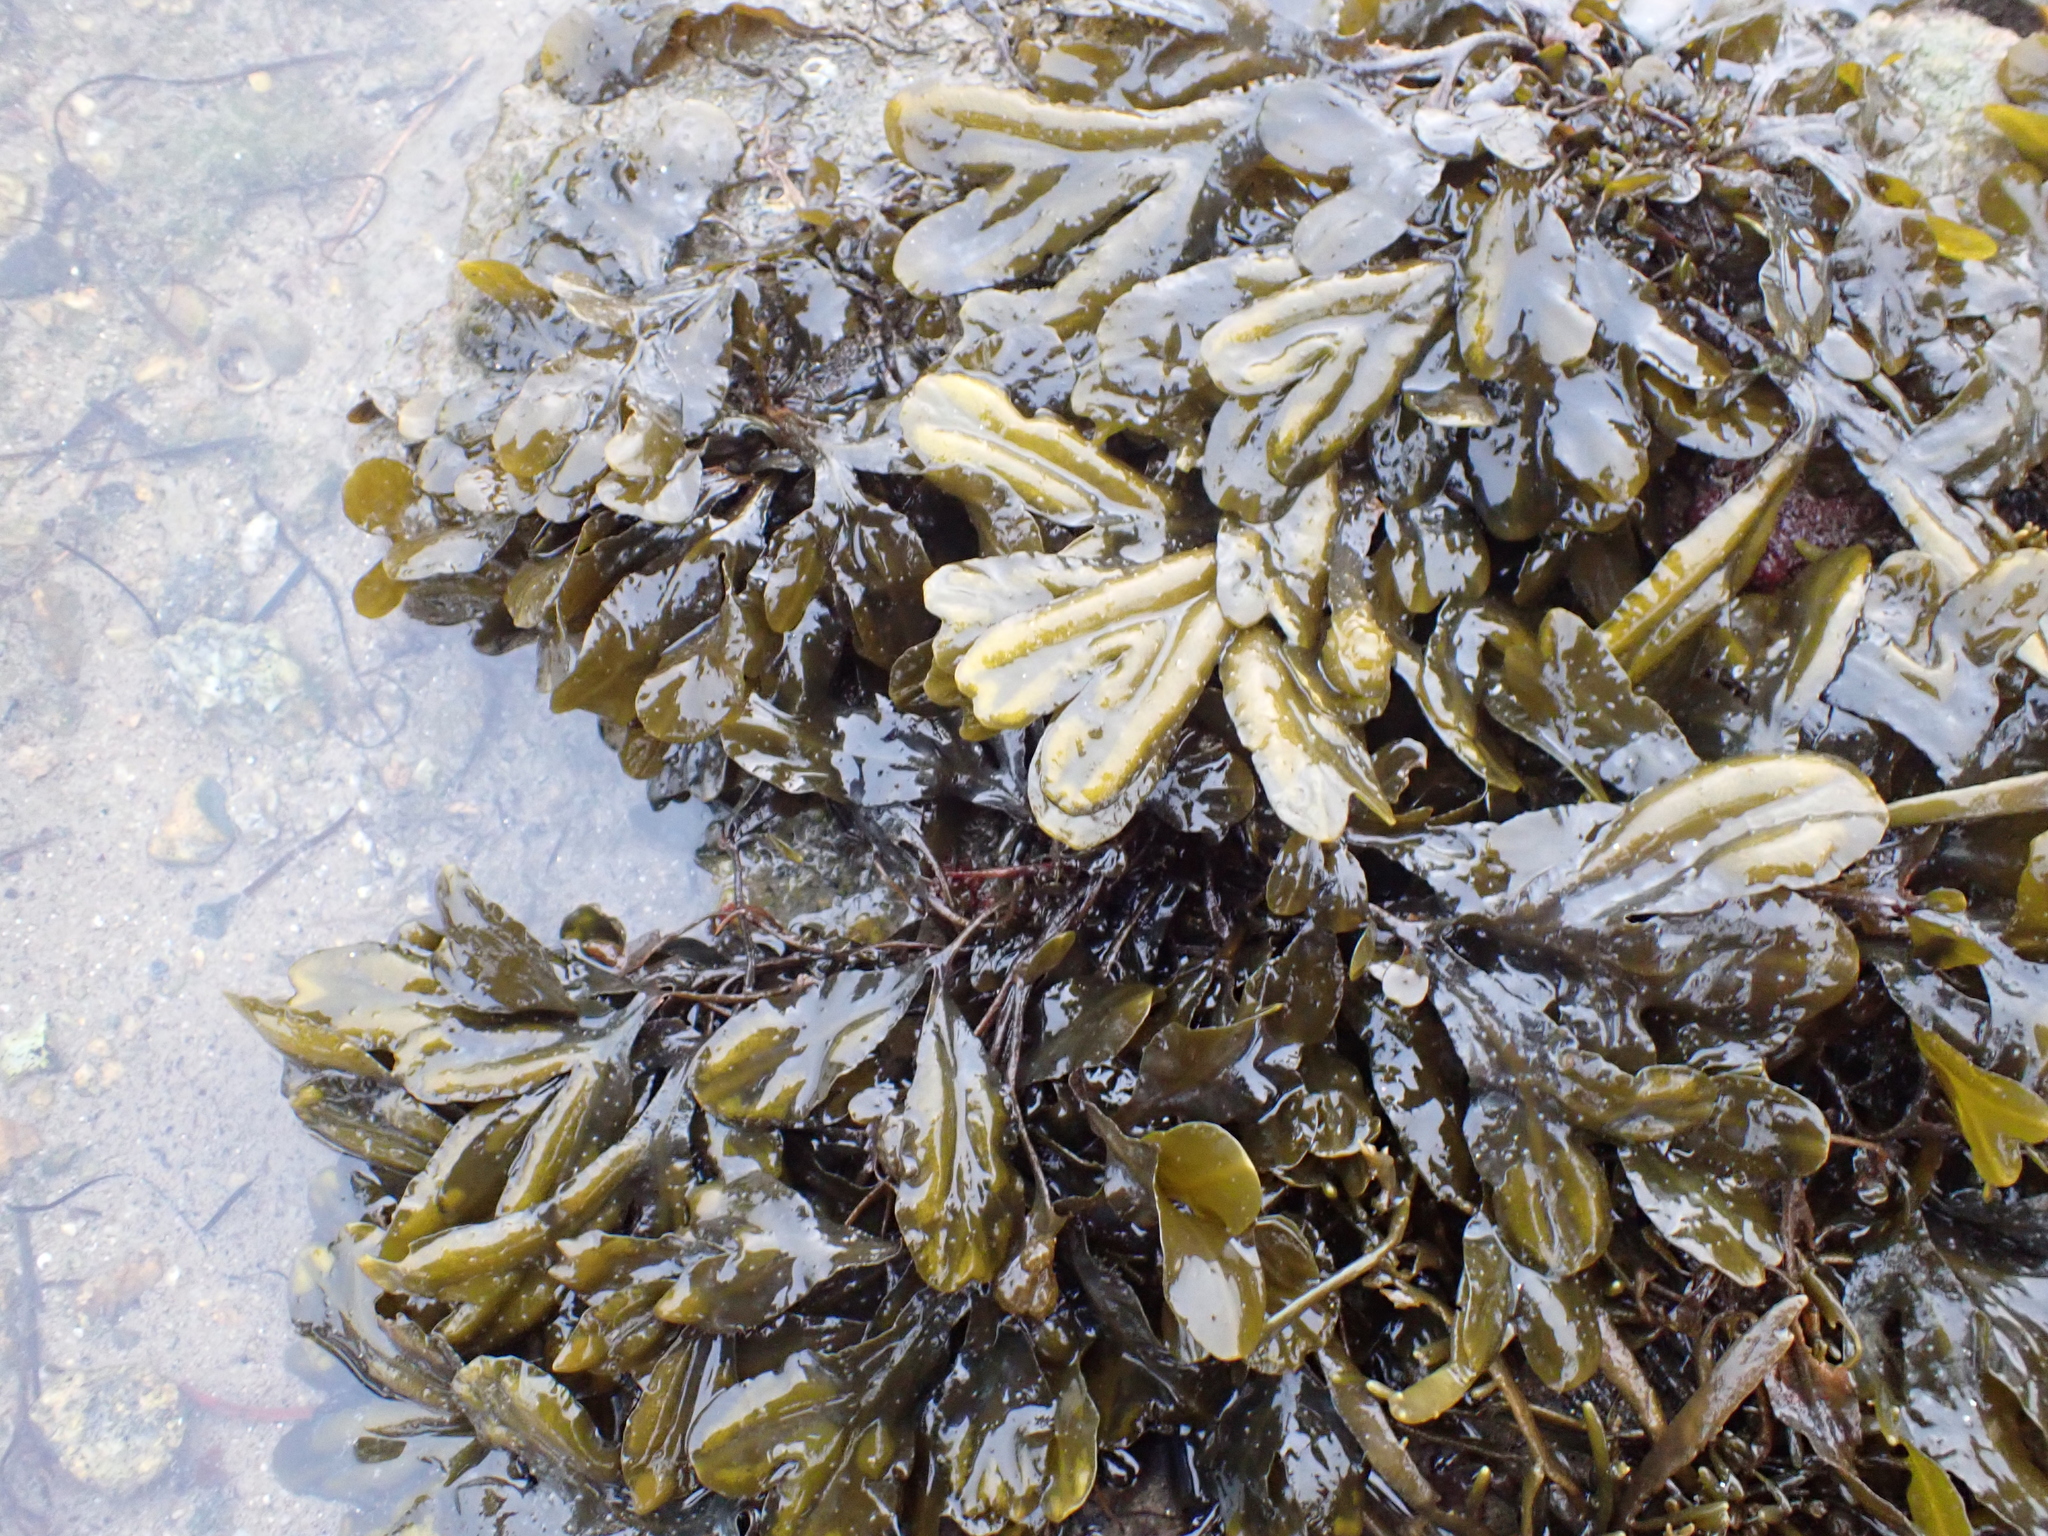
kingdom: Chromista
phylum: Ochrophyta
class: Phaeophyceae
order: Fucales
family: Fucaceae
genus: Fucus
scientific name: Fucus ceranoides
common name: Horned wrack
